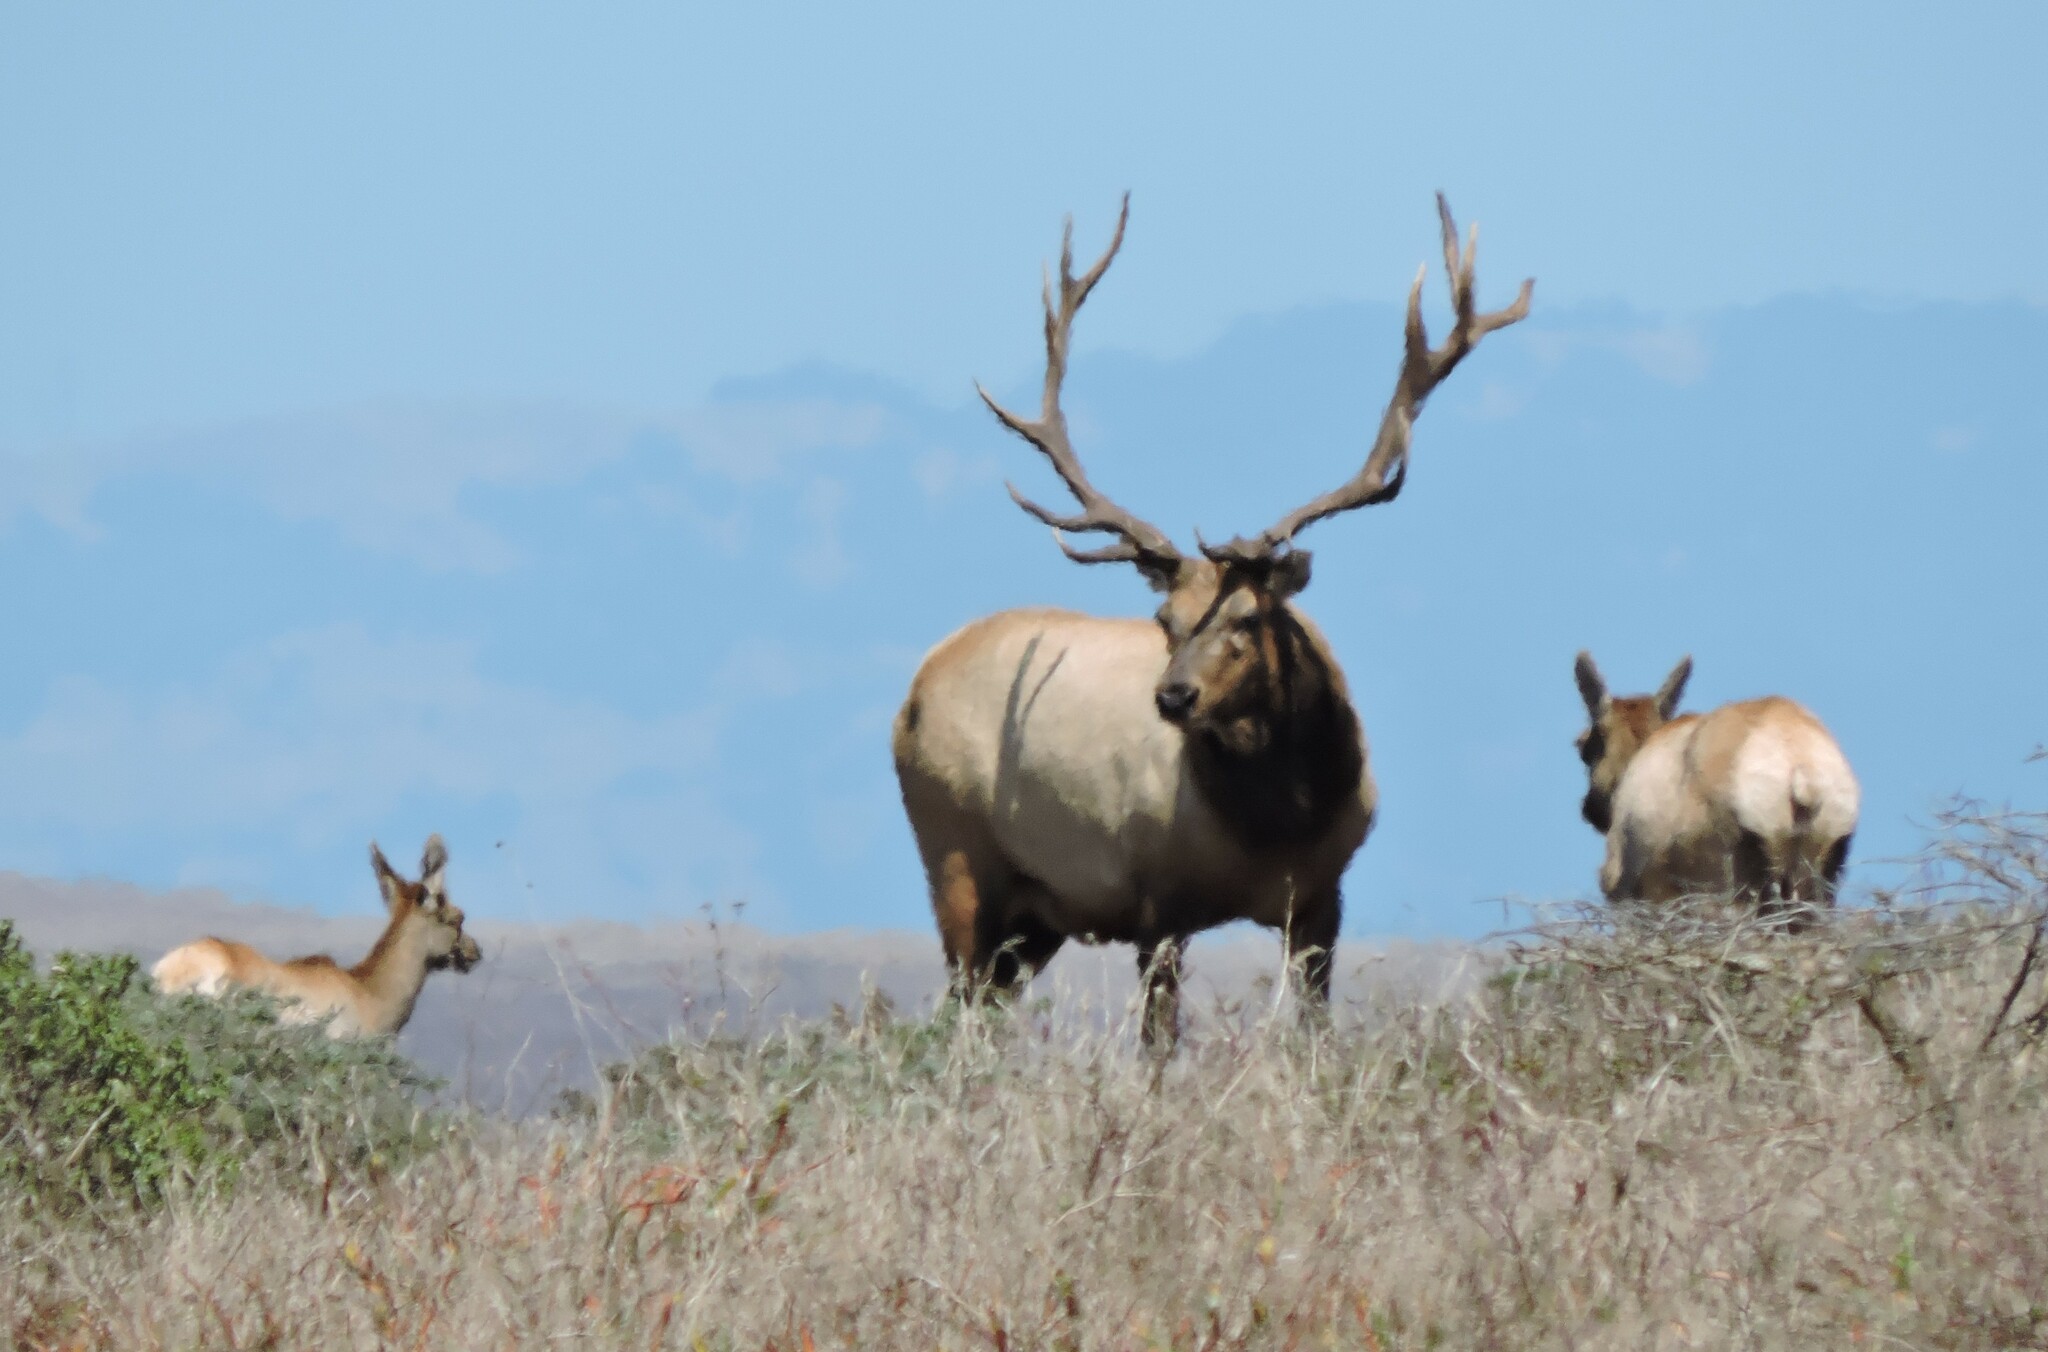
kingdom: Animalia
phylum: Chordata
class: Mammalia
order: Artiodactyla
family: Cervidae
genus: Cervus
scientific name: Cervus elaphus
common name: Red deer
